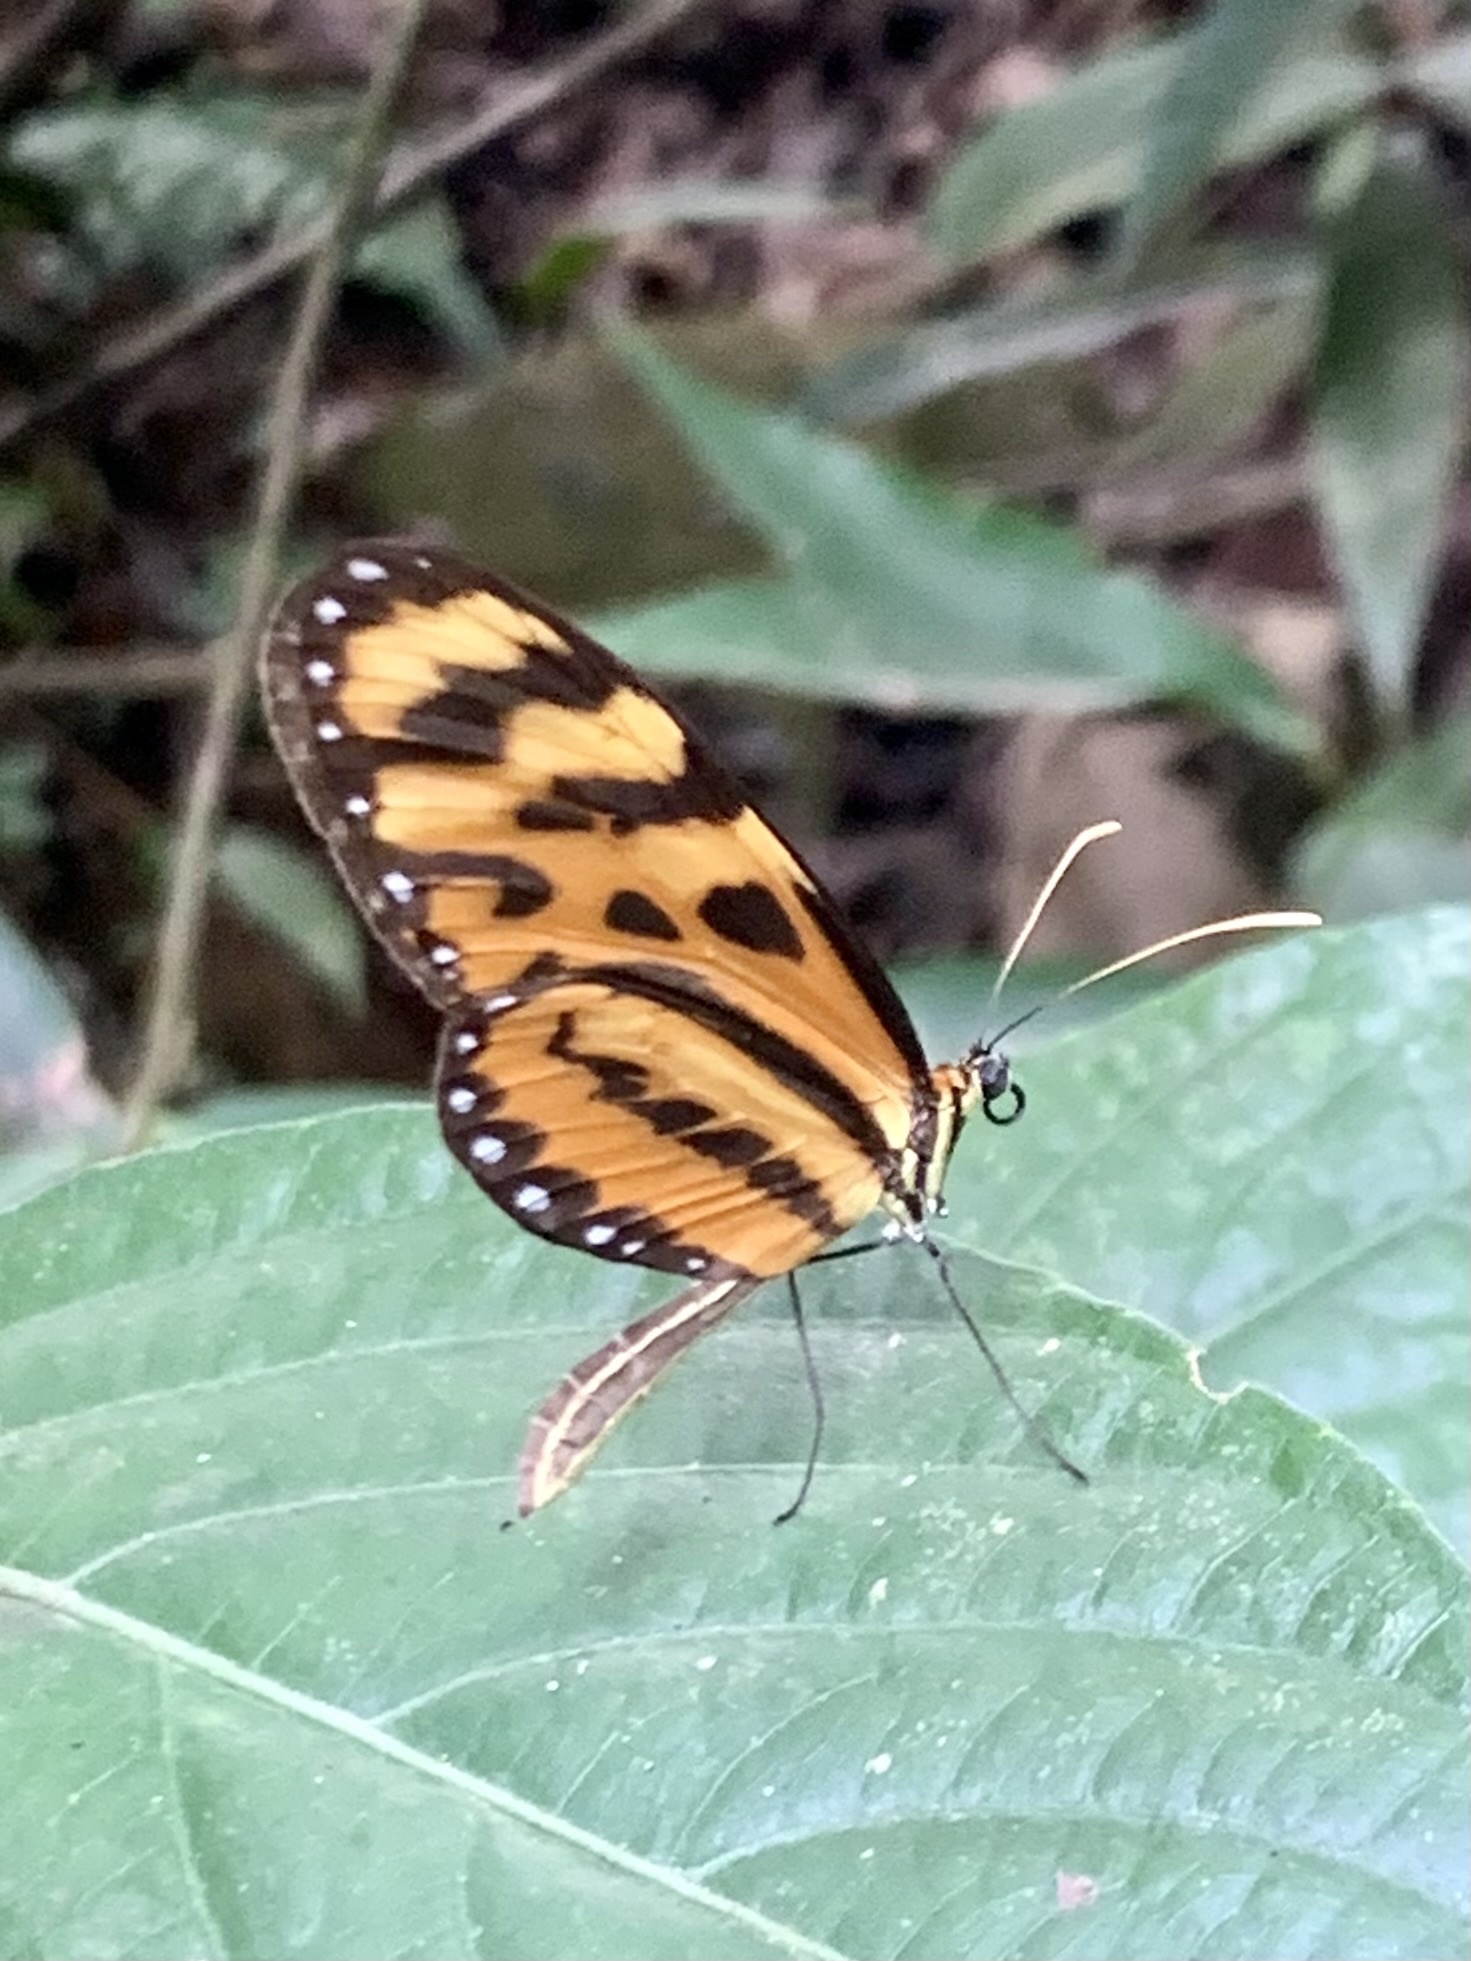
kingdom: Animalia
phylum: Arthropoda
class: Insecta
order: Lepidoptera
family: Nymphalidae
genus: Mechanitis
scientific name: Mechanitis lysimnia
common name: Lysimnia tigerwing
